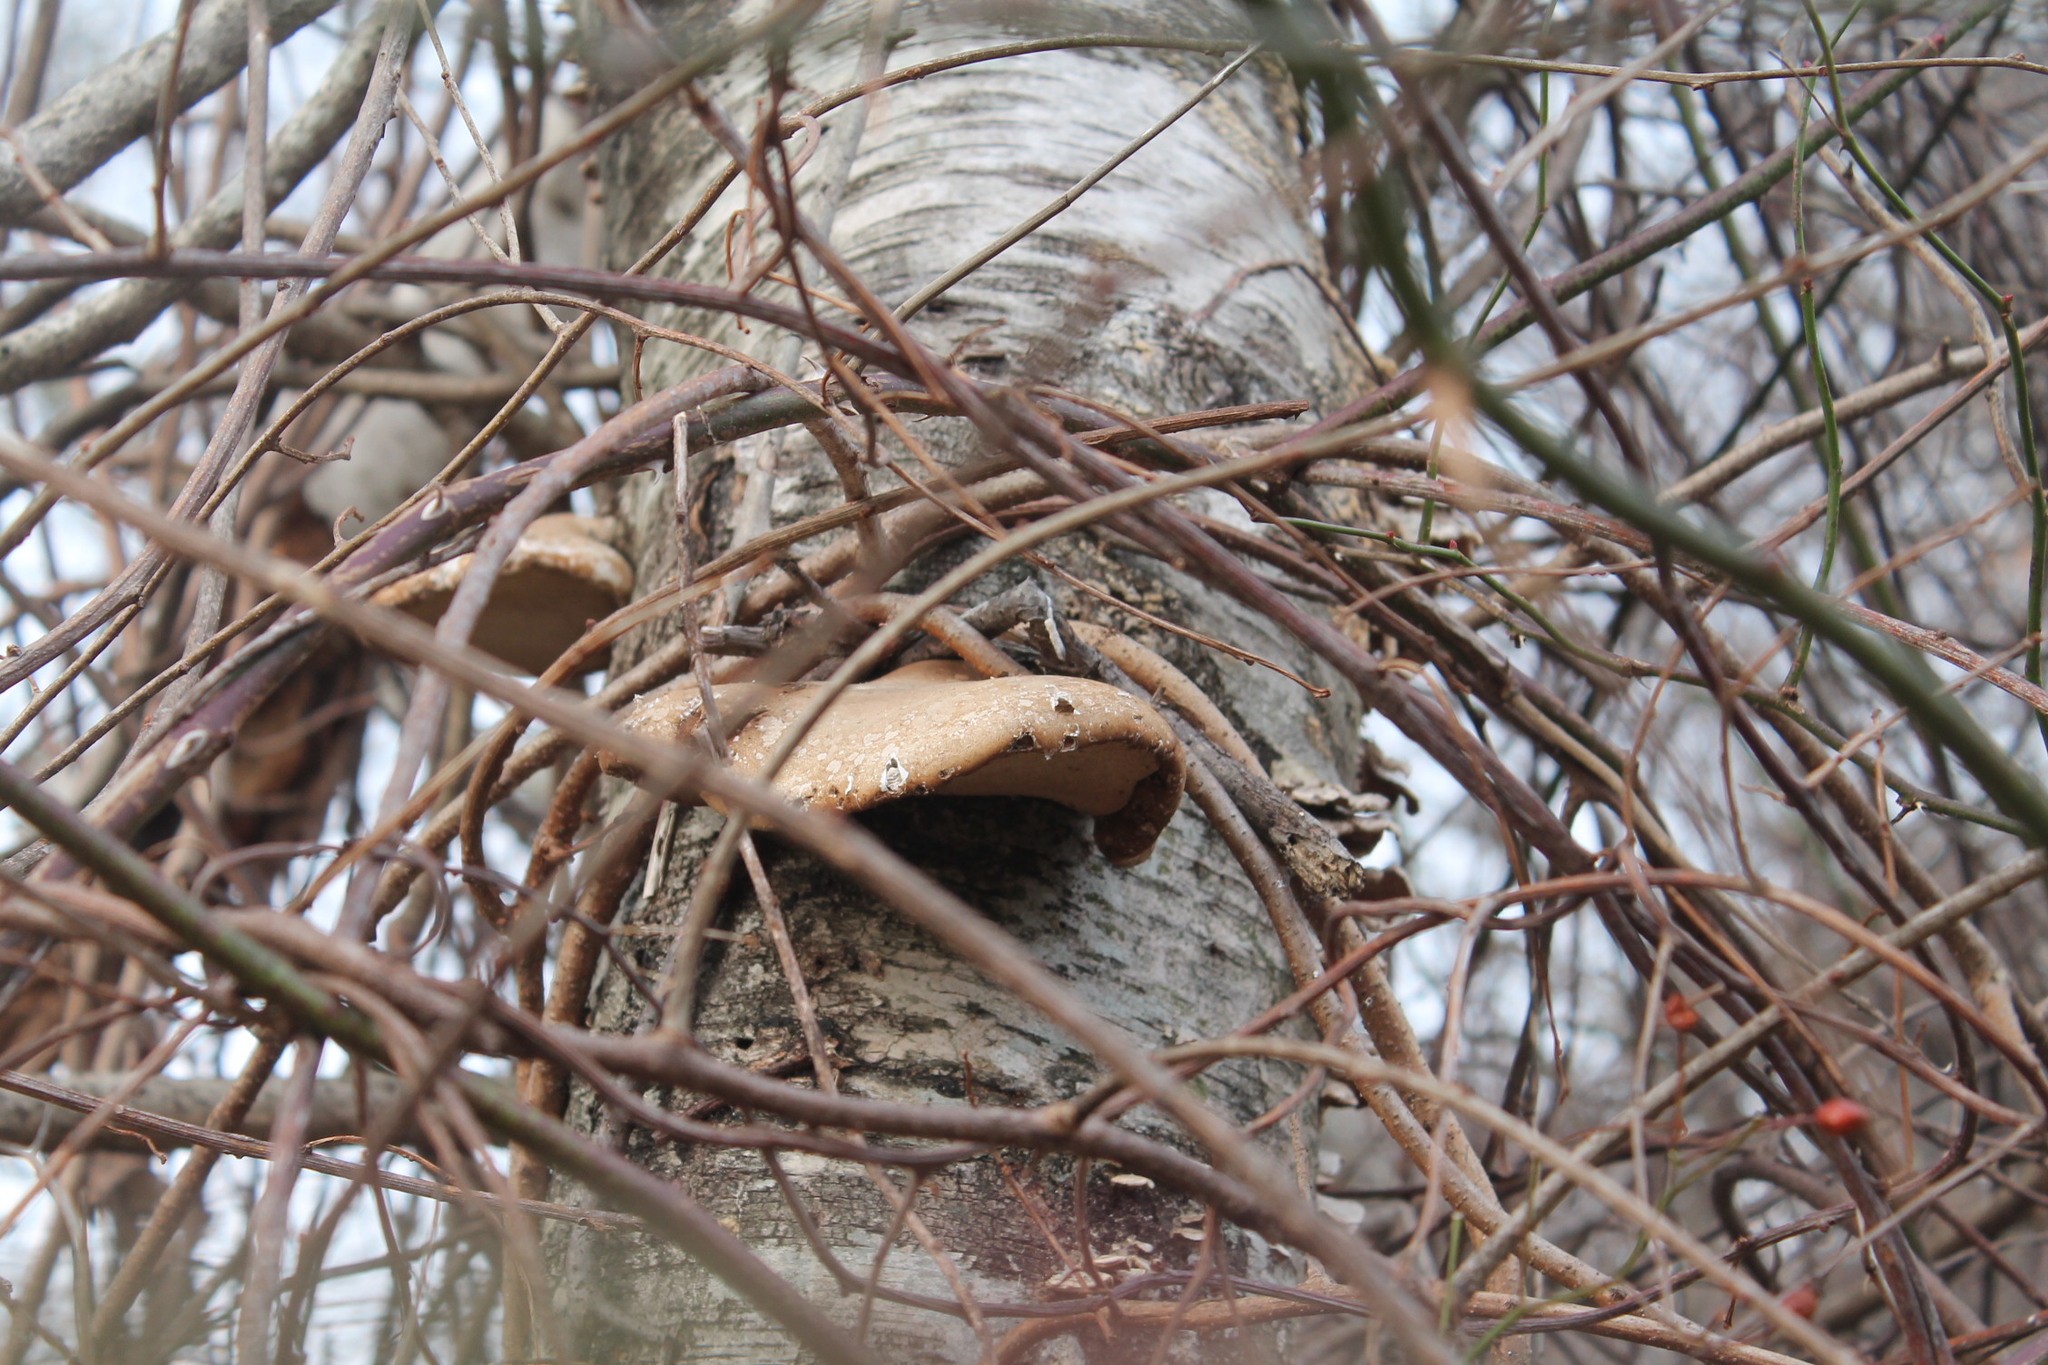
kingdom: Fungi
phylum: Basidiomycota
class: Agaricomycetes
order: Polyporales
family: Fomitopsidaceae
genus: Fomitopsis
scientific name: Fomitopsis betulina
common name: Birch polypore
